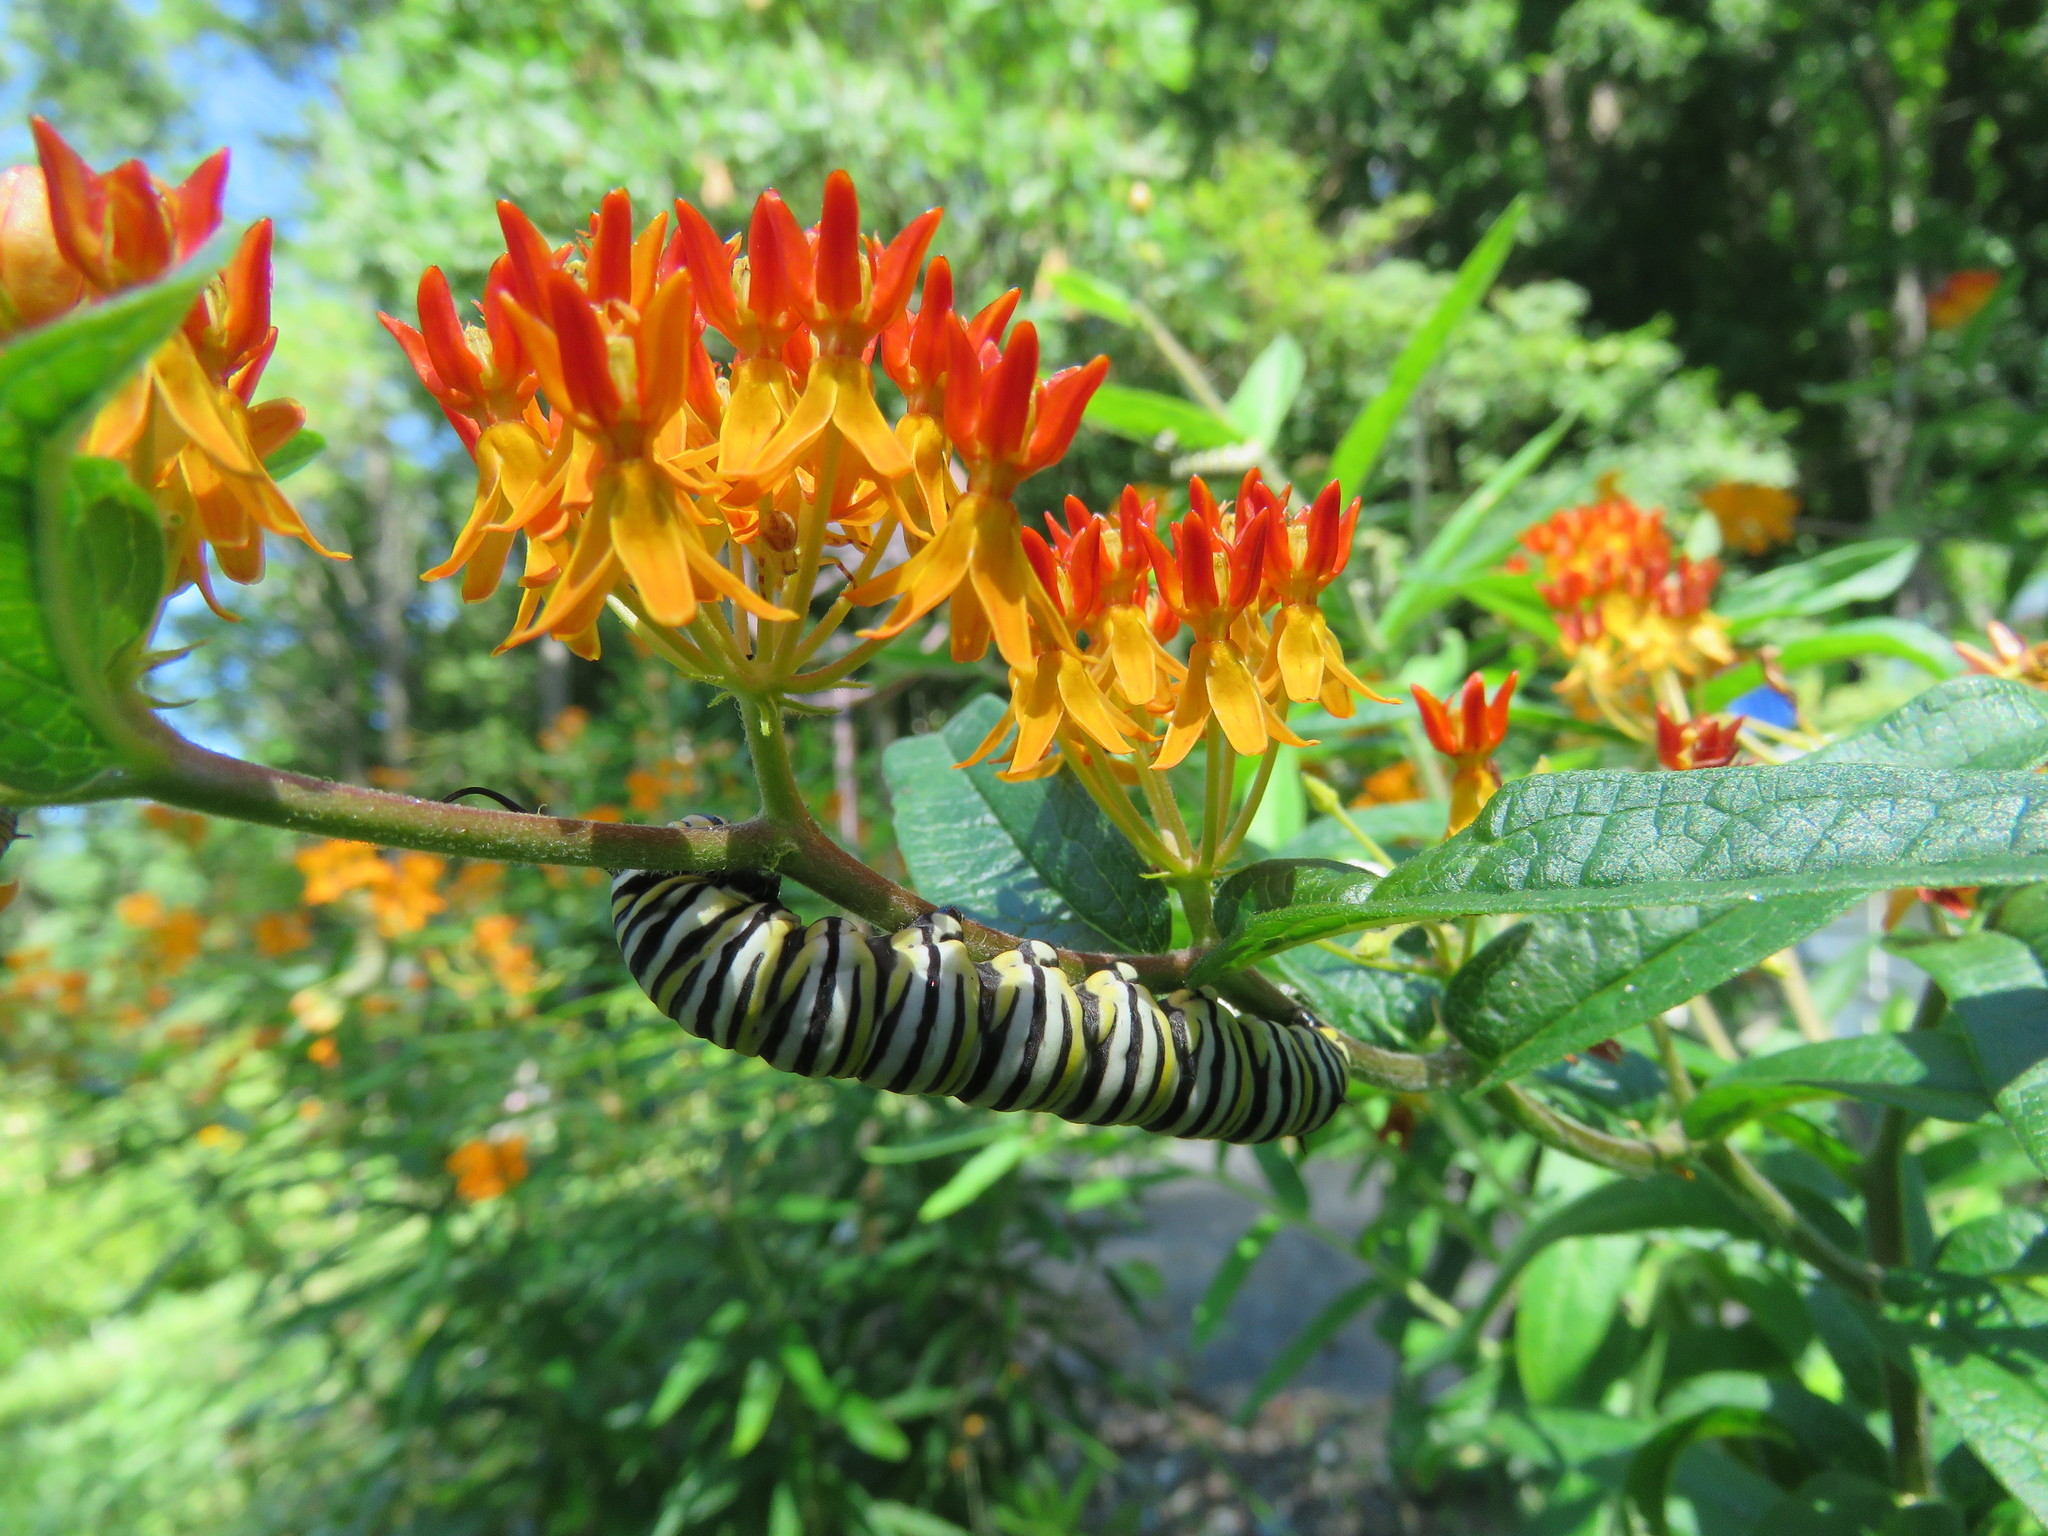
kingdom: Animalia
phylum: Arthropoda
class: Insecta
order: Lepidoptera
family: Nymphalidae
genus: Danaus
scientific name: Danaus plexippus
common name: Monarch
